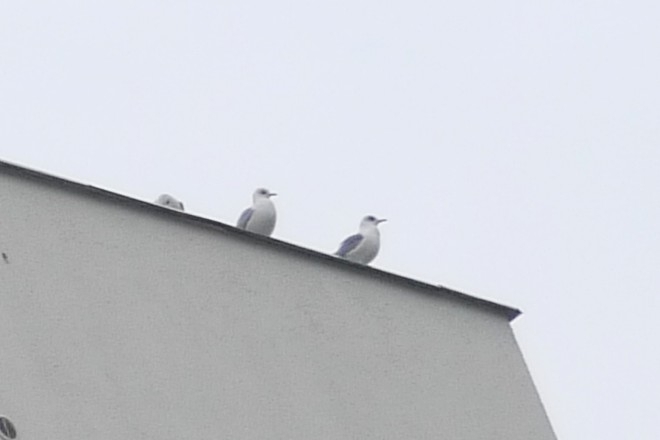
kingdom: Animalia
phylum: Chordata
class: Aves
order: Charadriiformes
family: Laridae
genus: Larus
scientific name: Larus canus
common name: Mew gull
